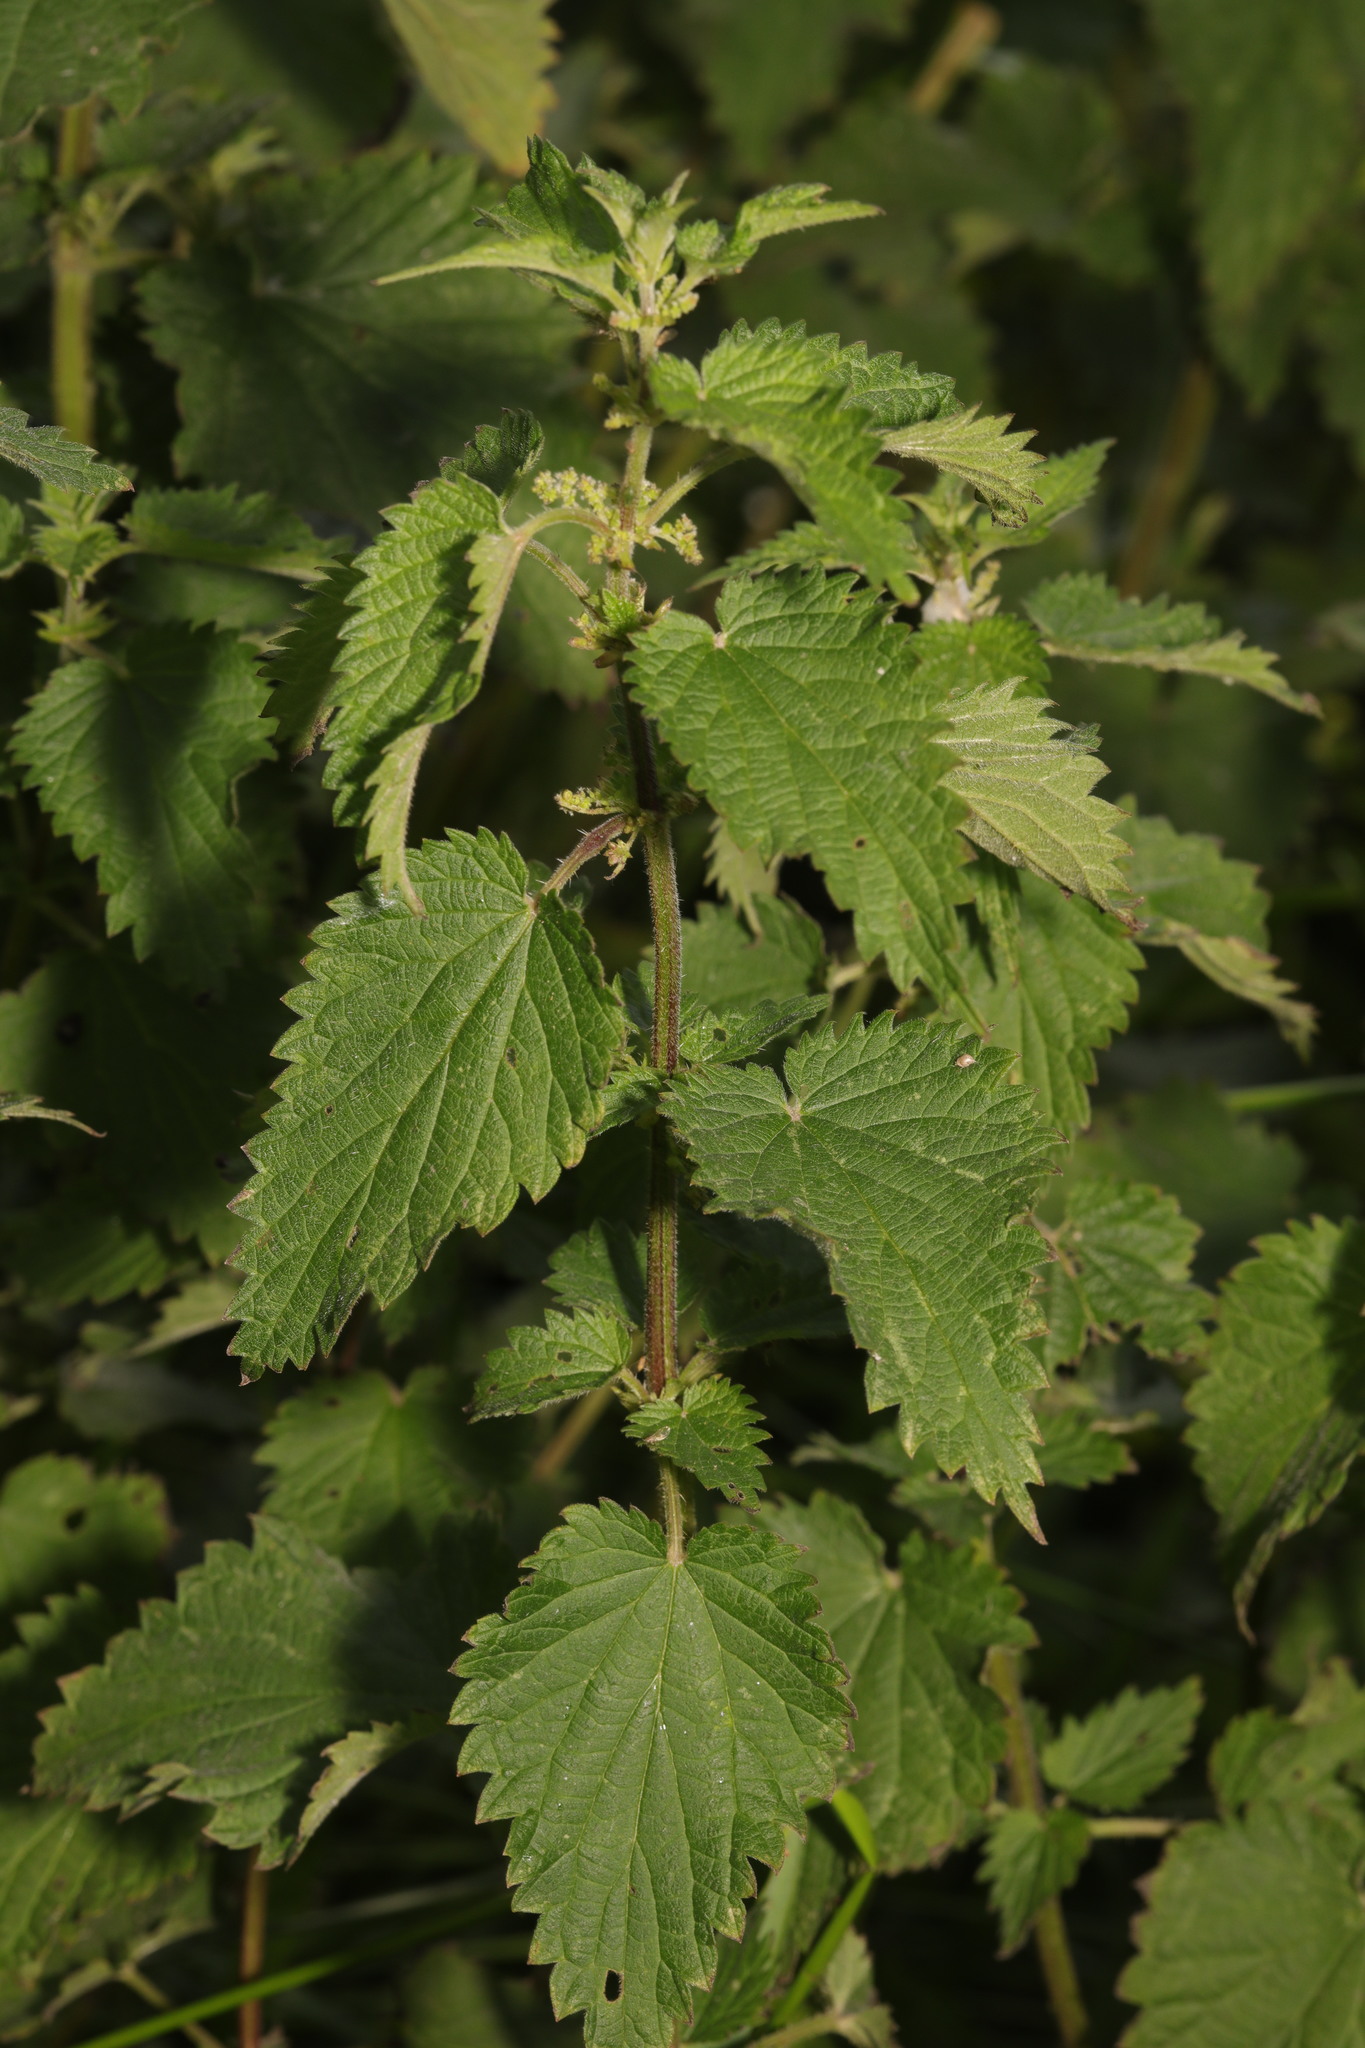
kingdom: Plantae
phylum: Tracheophyta
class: Magnoliopsida
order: Rosales
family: Urticaceae
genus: Urtica
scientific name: Urtica dioica
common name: Common nettle
